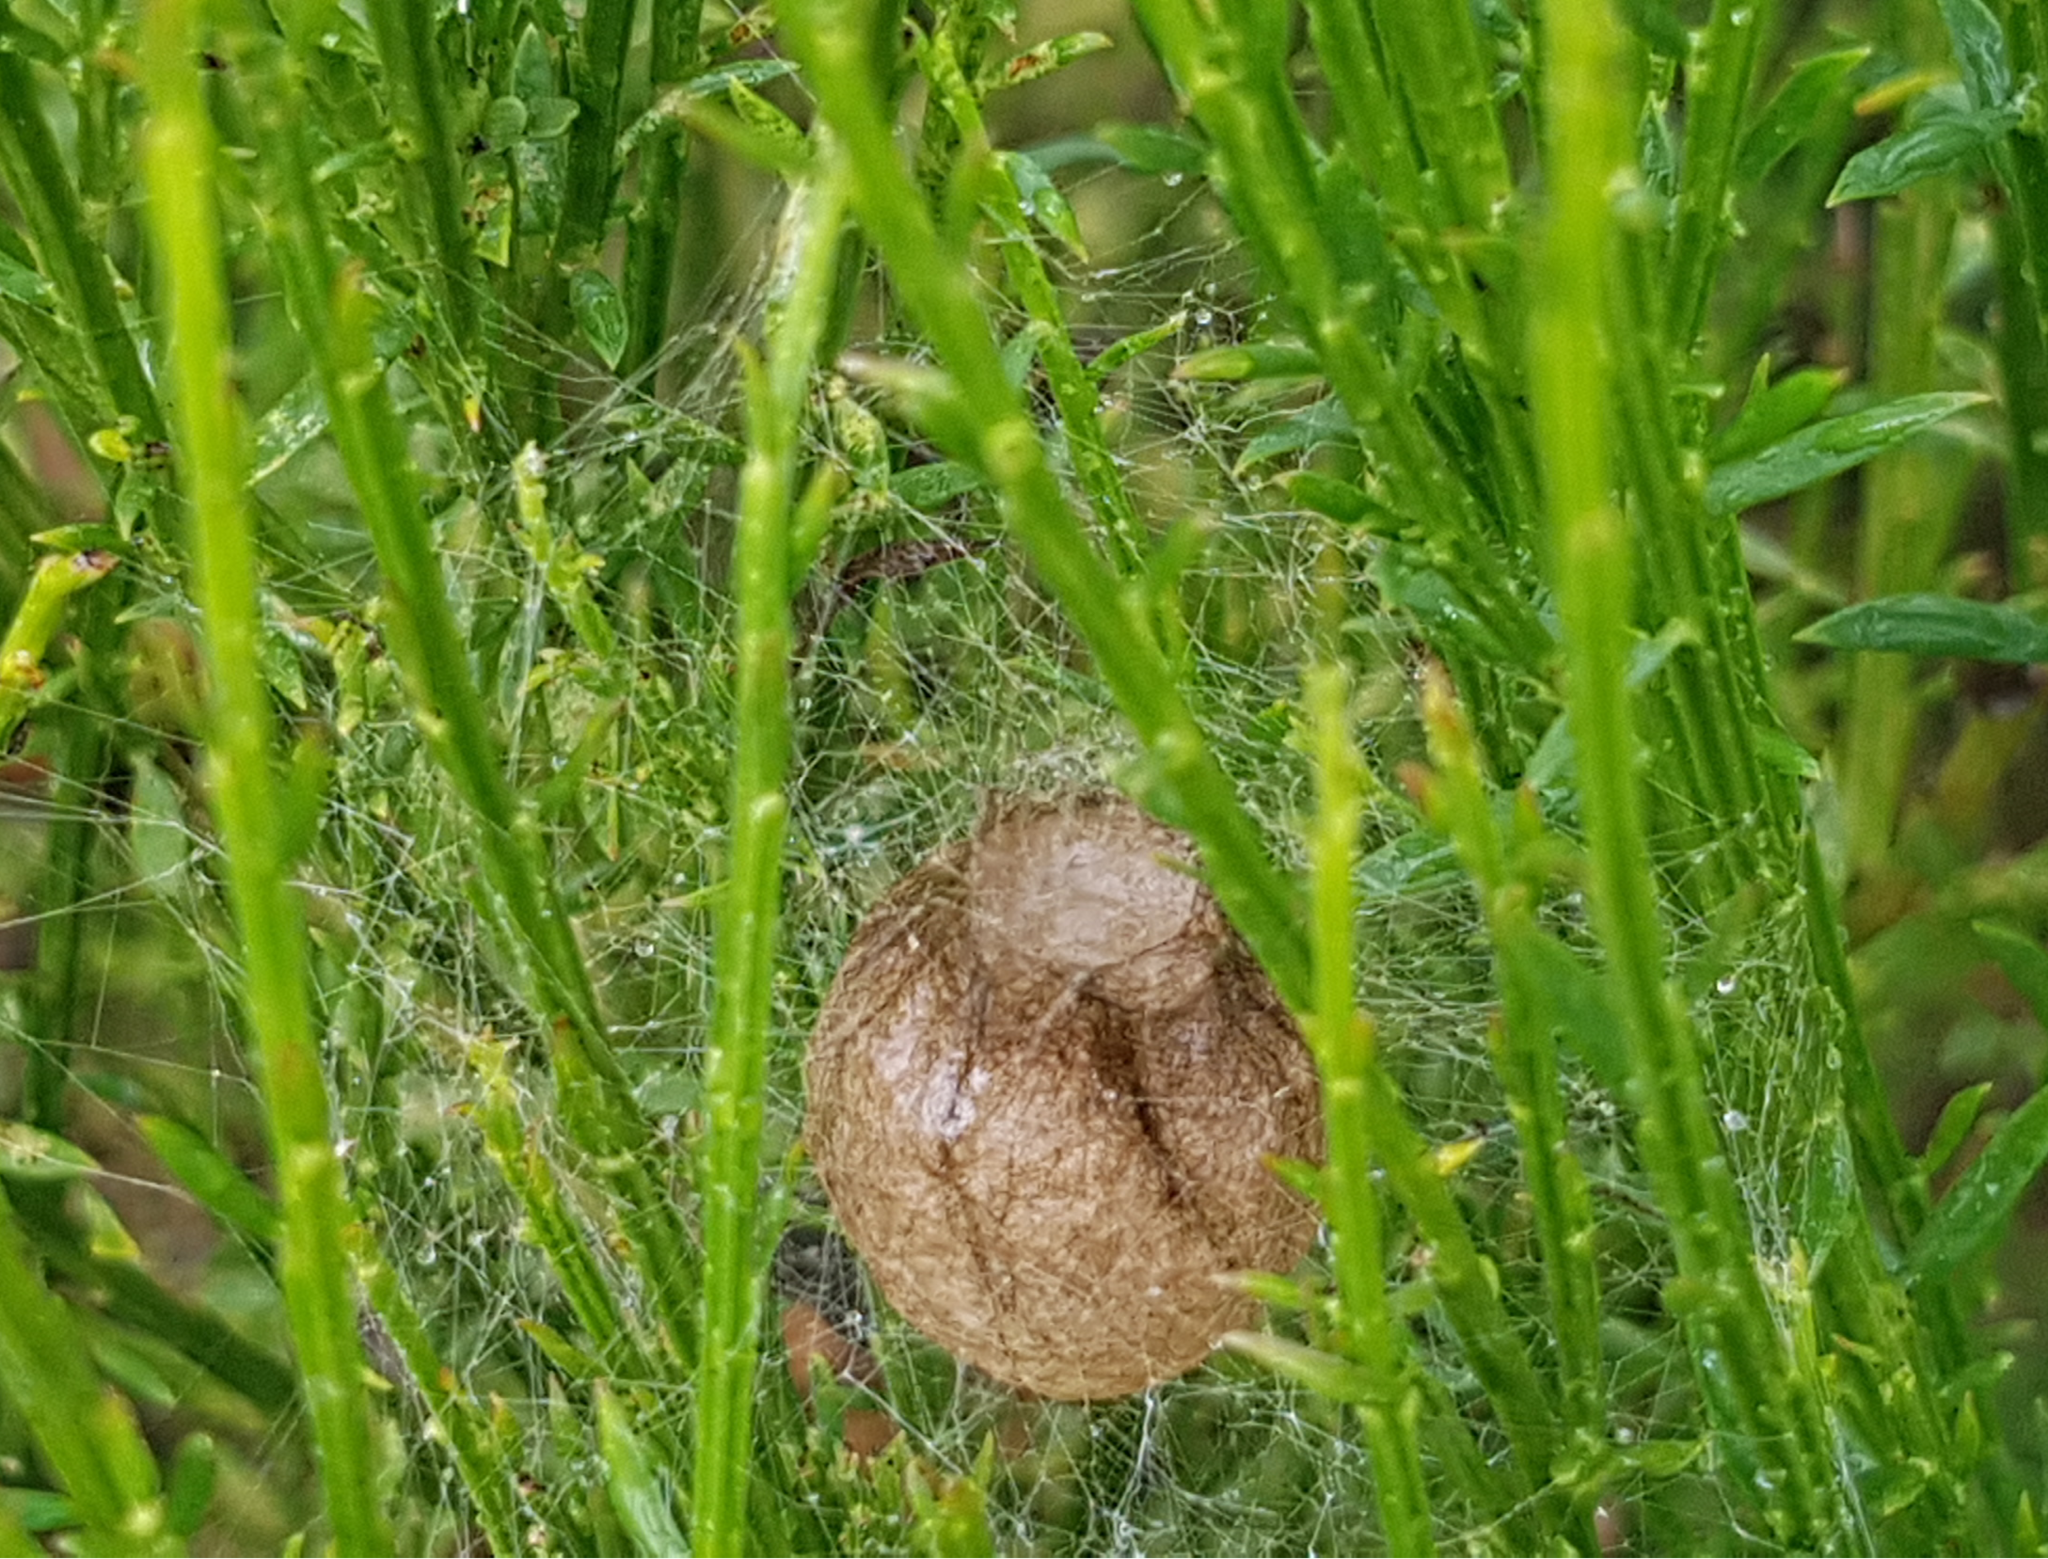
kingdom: Animalia
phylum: Arthropoda
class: Arachnida
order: Araneae
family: Araneidae
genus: Argiope
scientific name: Argiope bruennichi
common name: Wasp spider
